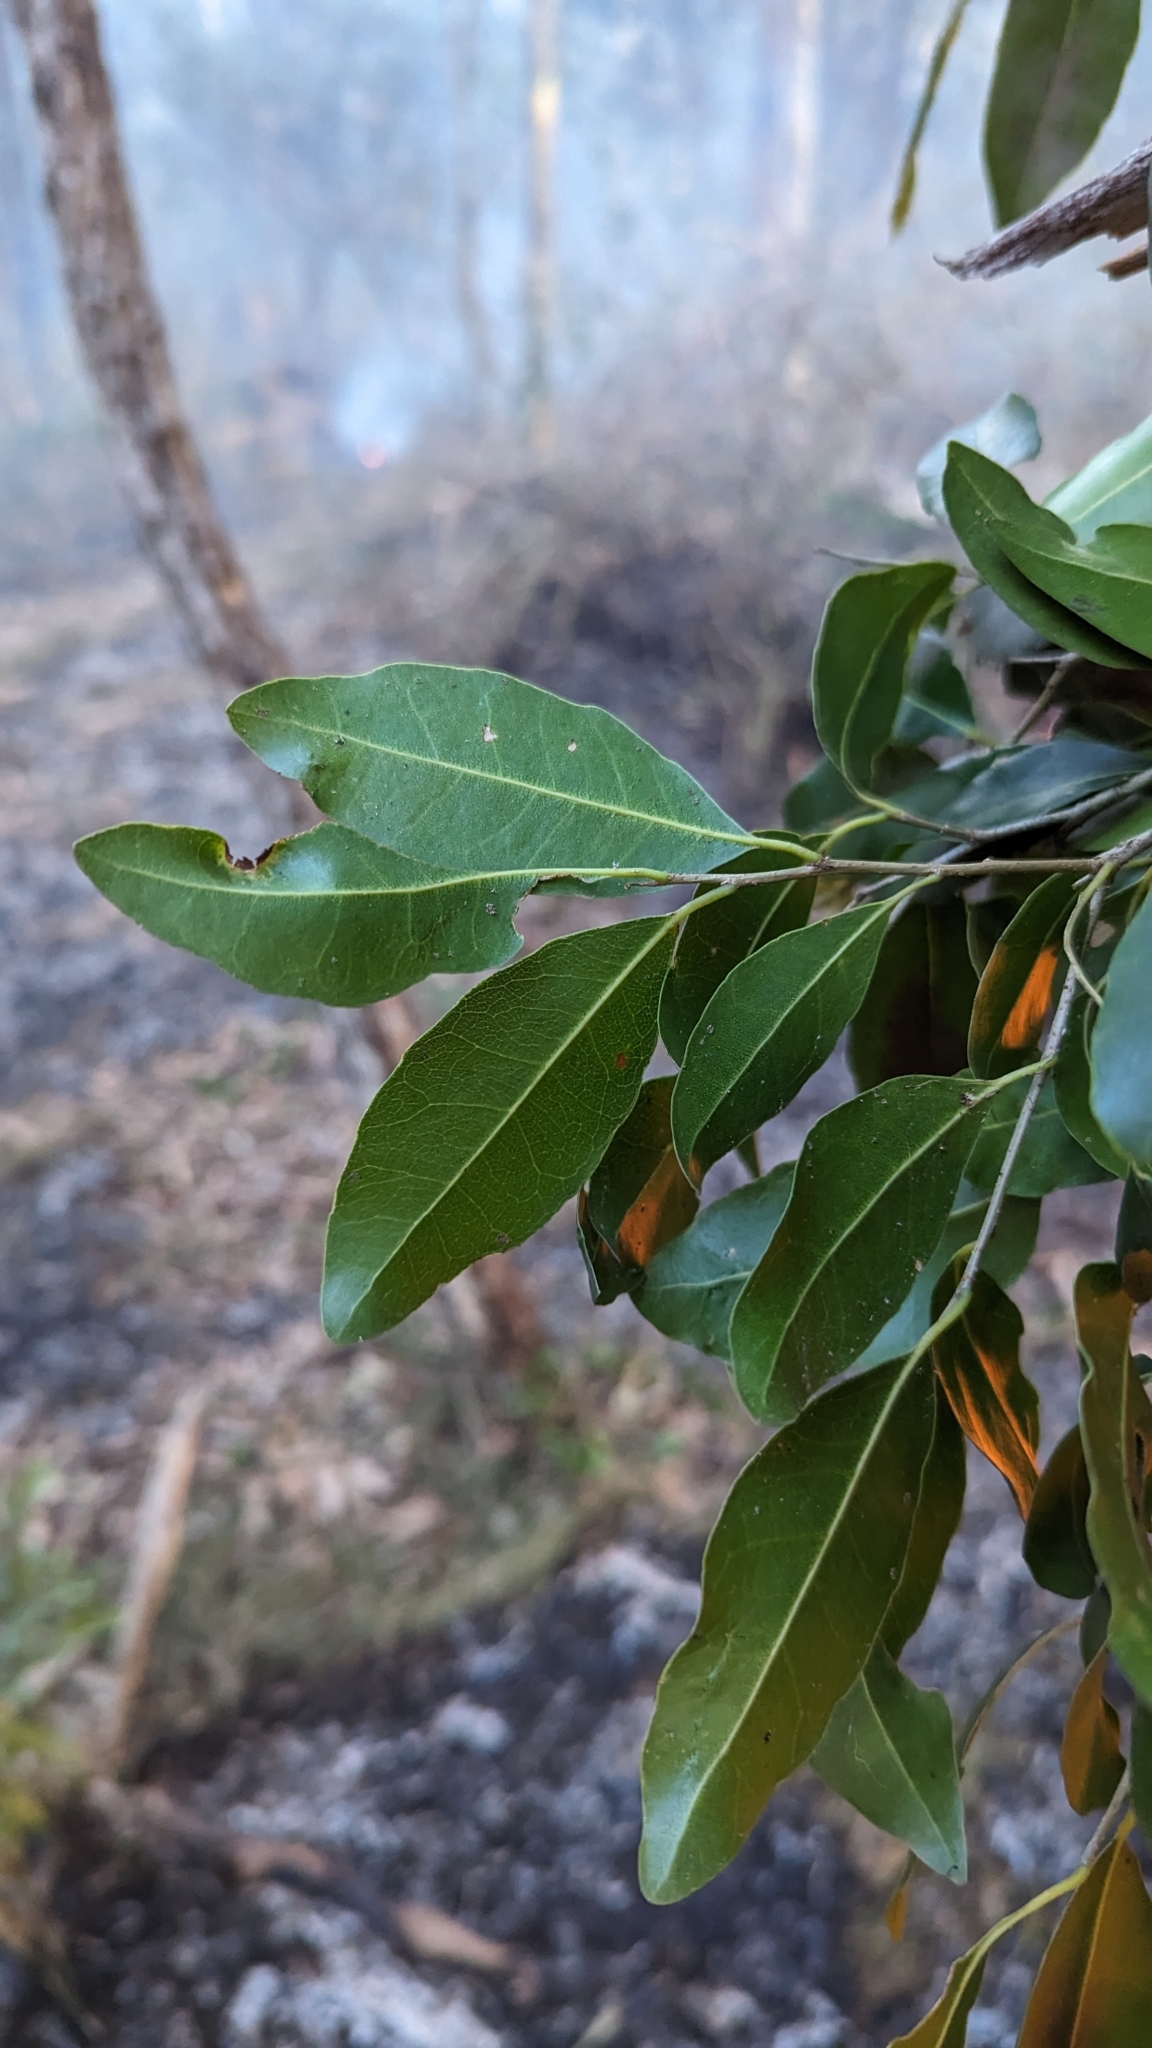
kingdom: Plantae
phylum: Tracheophyta
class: Magnoliopsida
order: Malpighiales
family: Putranjivaceae
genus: Drypetes
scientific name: Drypetes deplanchei
